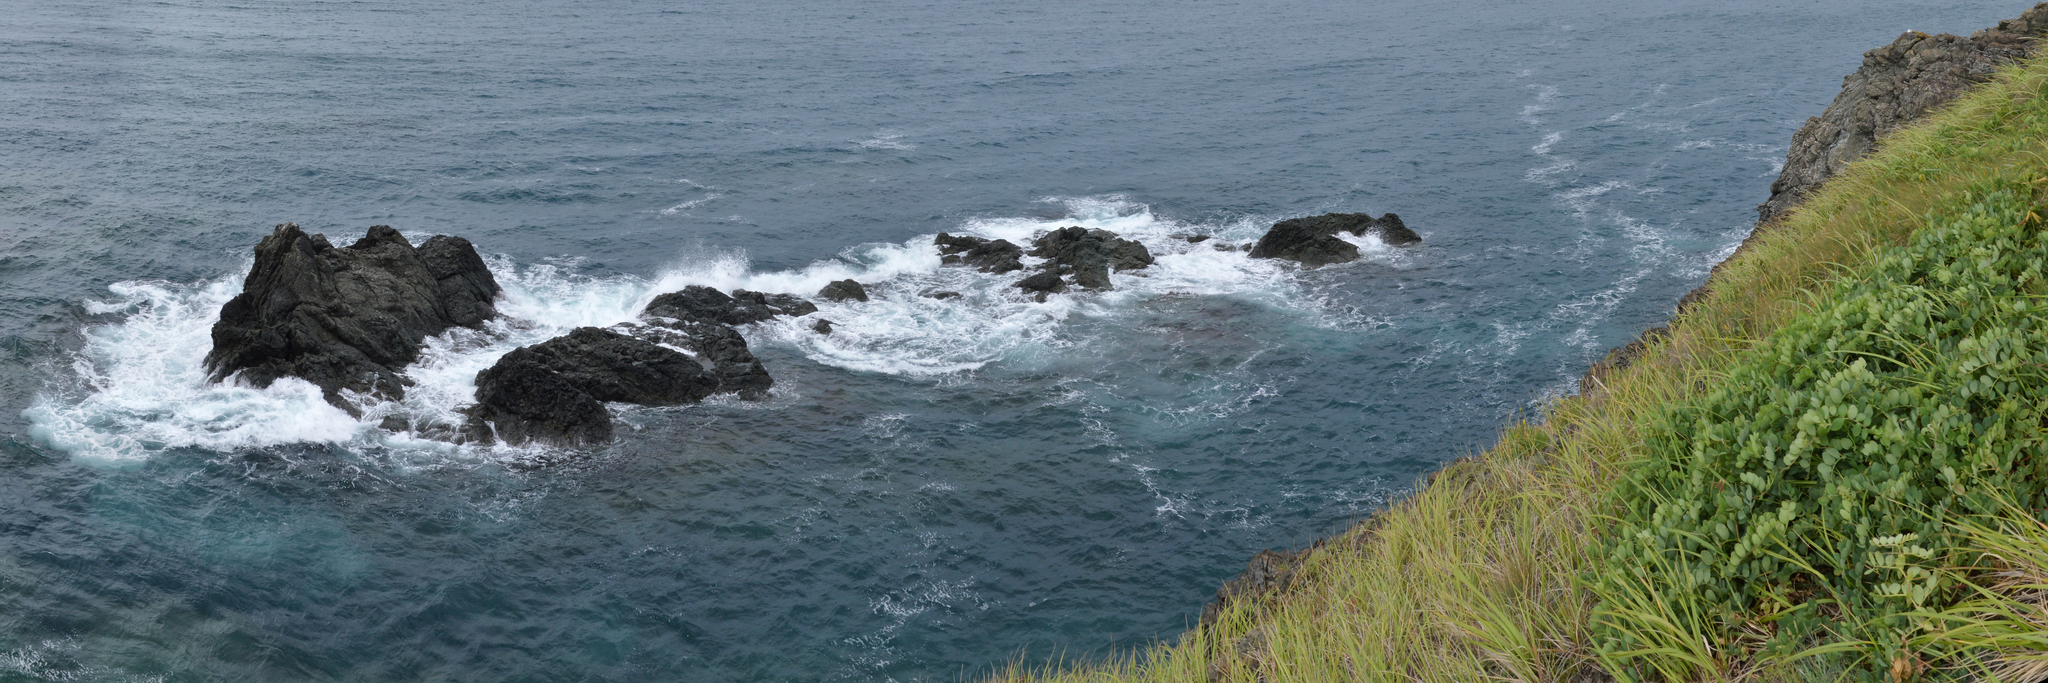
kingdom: Plantae
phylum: Tracheophyta
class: Magnoliopsida
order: Fabales
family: Fabaceae
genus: Lathyrus
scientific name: Lathyrus japonicus
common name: Sea pea
